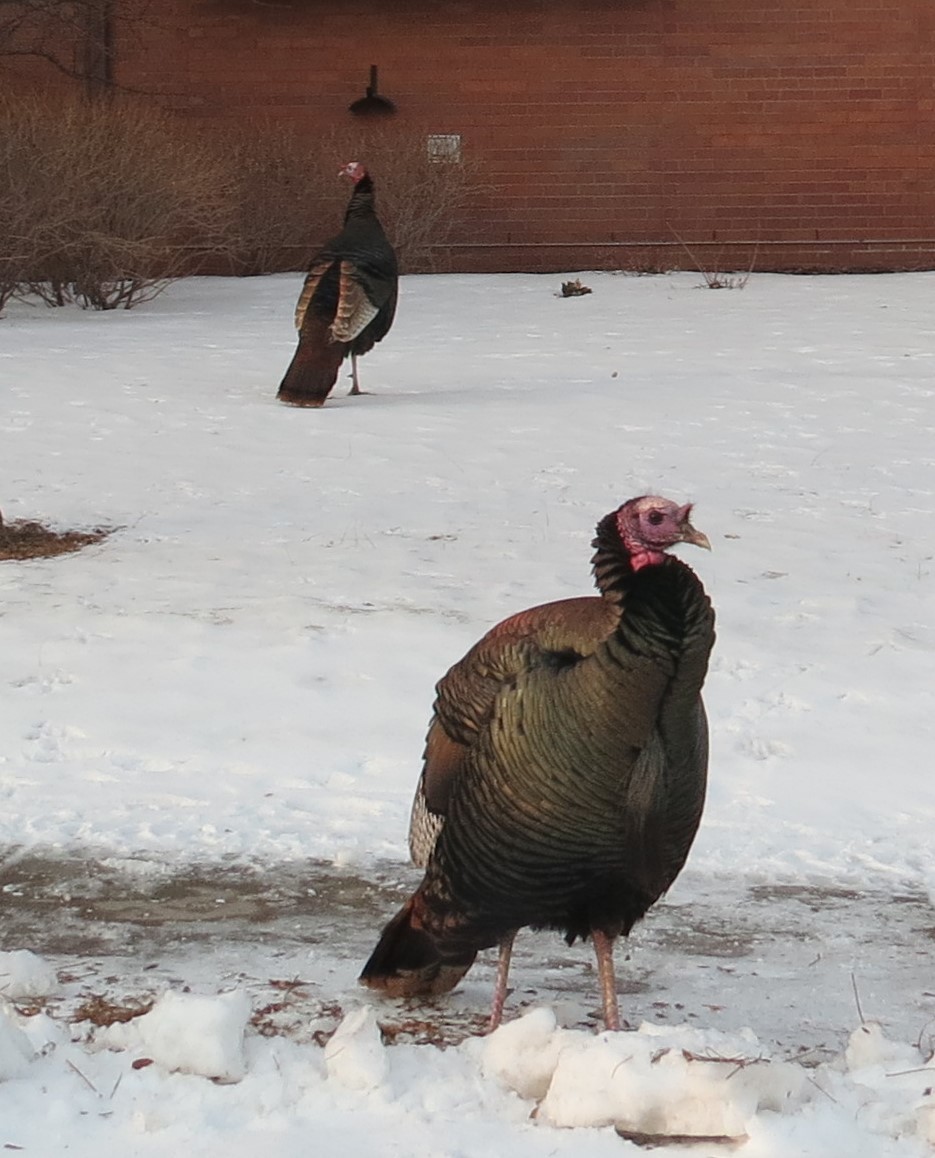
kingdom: Animalia
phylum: Chordata
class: Aves
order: Galliformes
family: Phasianidae
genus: Meleagris
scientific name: Meleagris gallopavo
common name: Wild turkey
